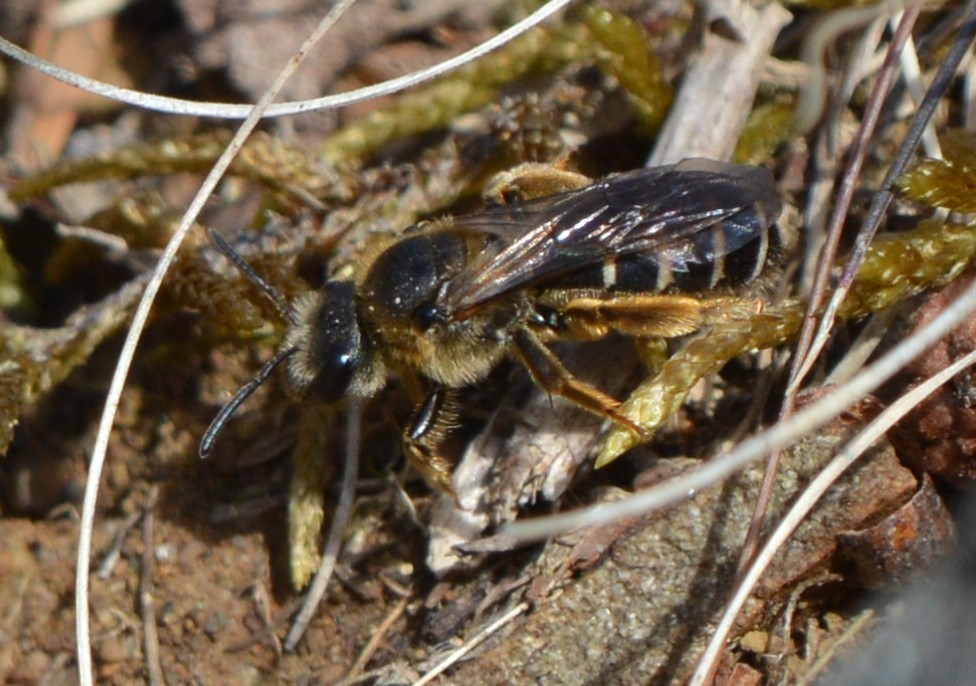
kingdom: Animalia
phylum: Arthropoda
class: Insecta
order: Hymenoptera
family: Halictidae
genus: Halictus
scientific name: Halictus rubicundus
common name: Orange-legged furrow bee
